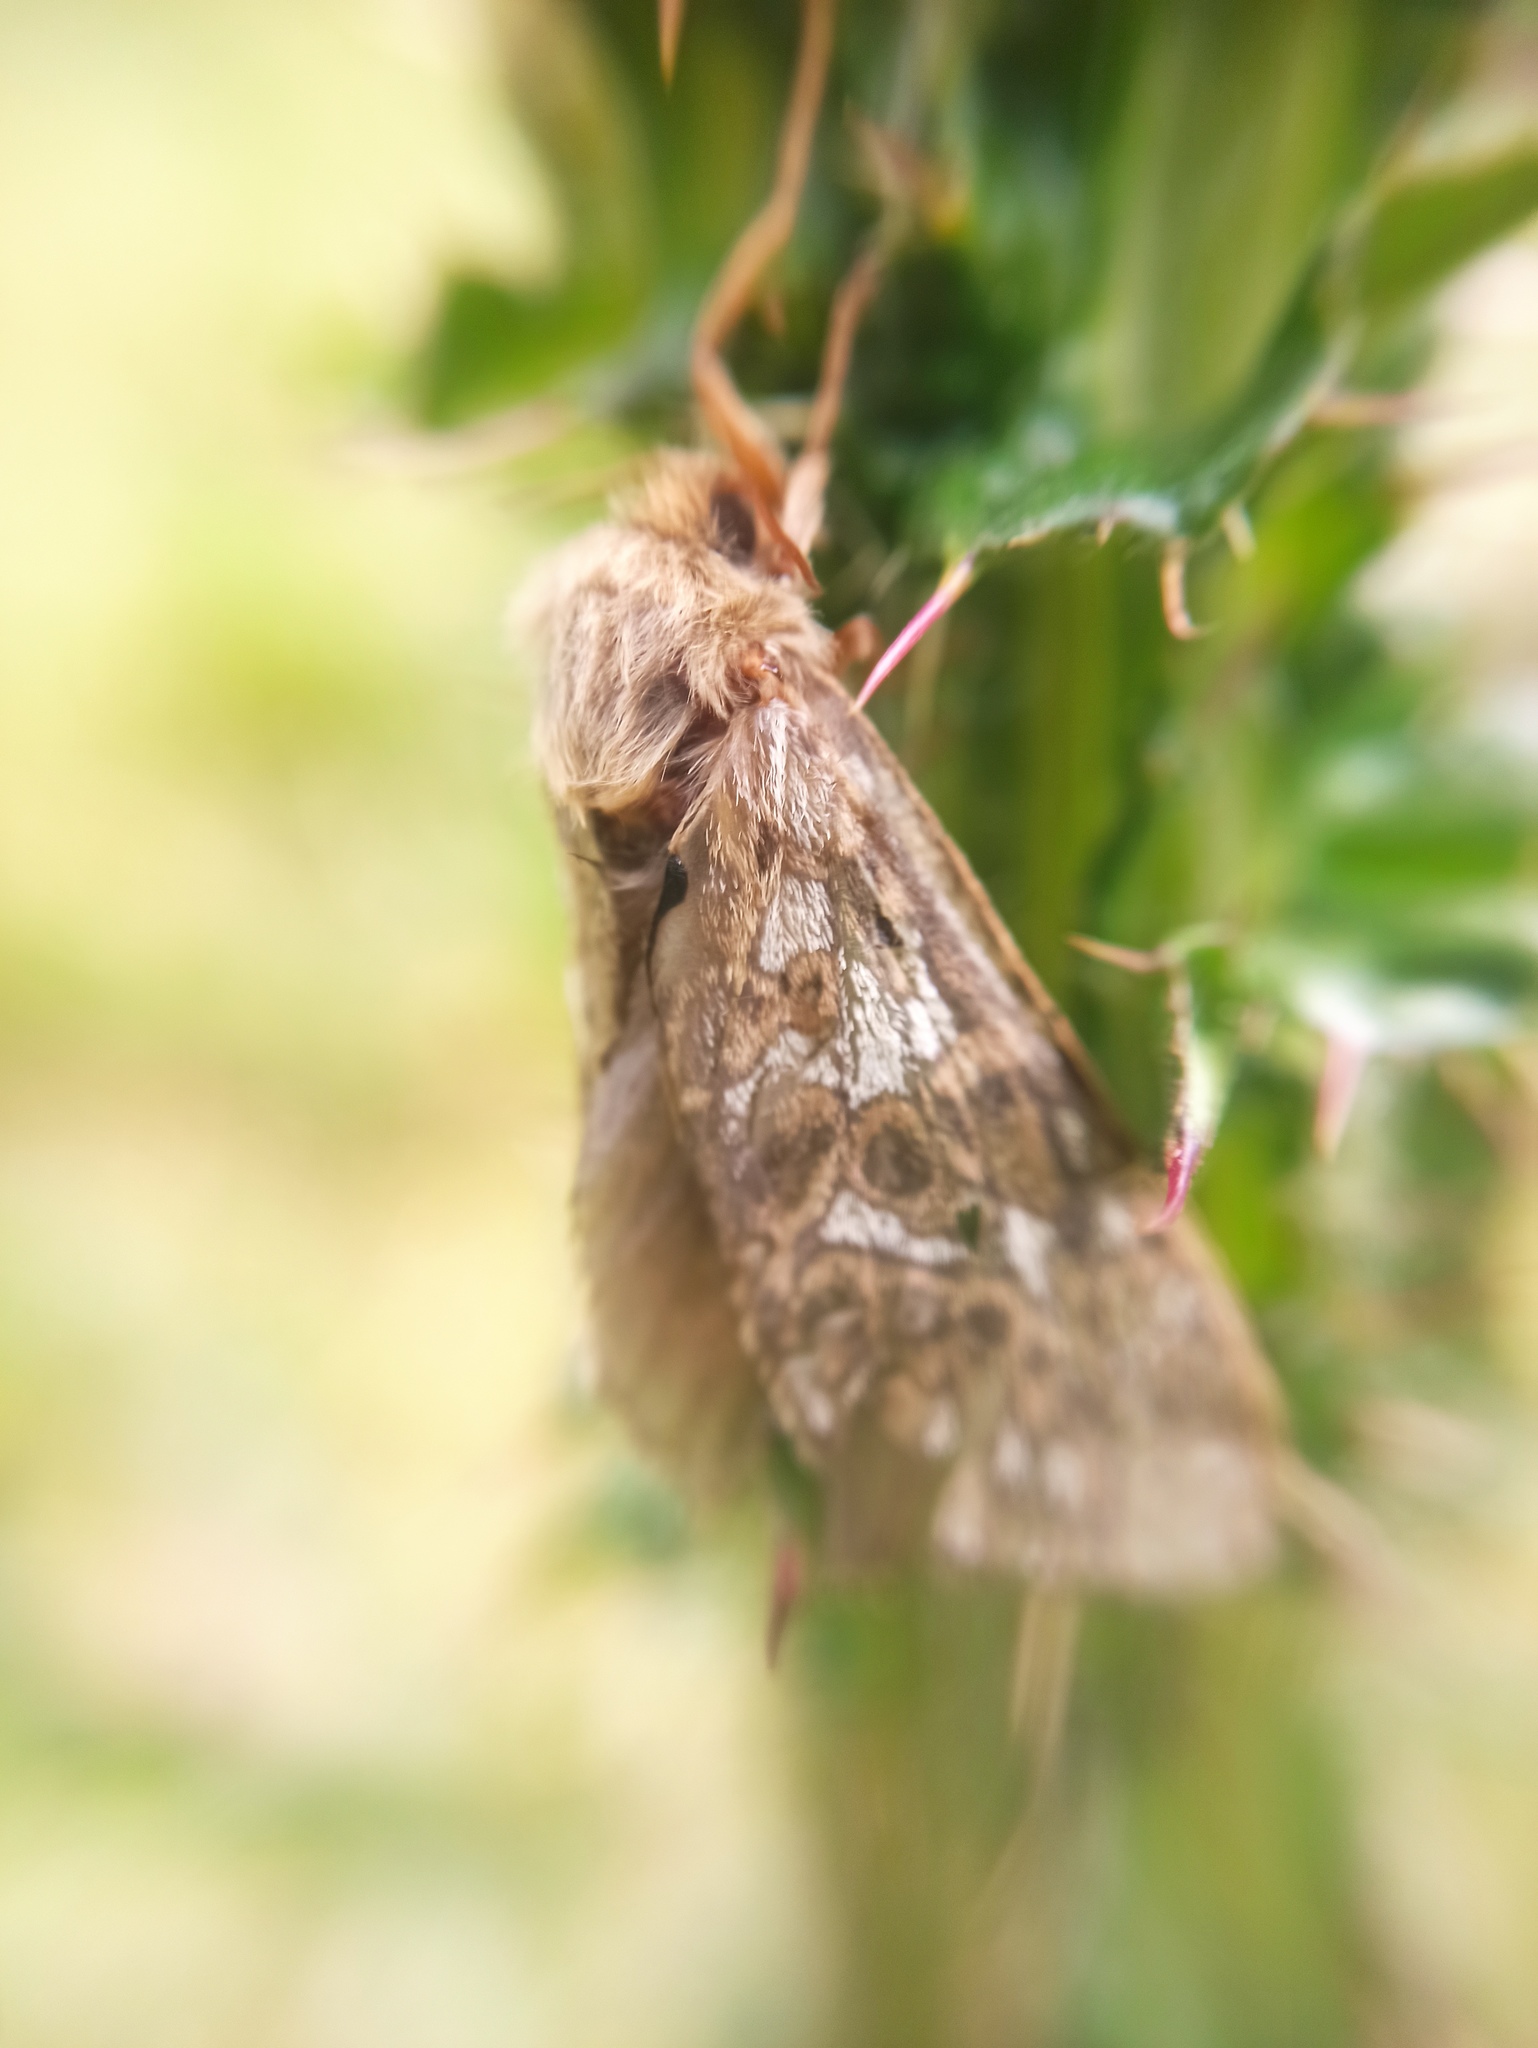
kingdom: Animalia
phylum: Arthropoda
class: Insecta
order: Lepidoptera
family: Hepialidae
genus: Pharmacis
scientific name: Pharmacis carna
